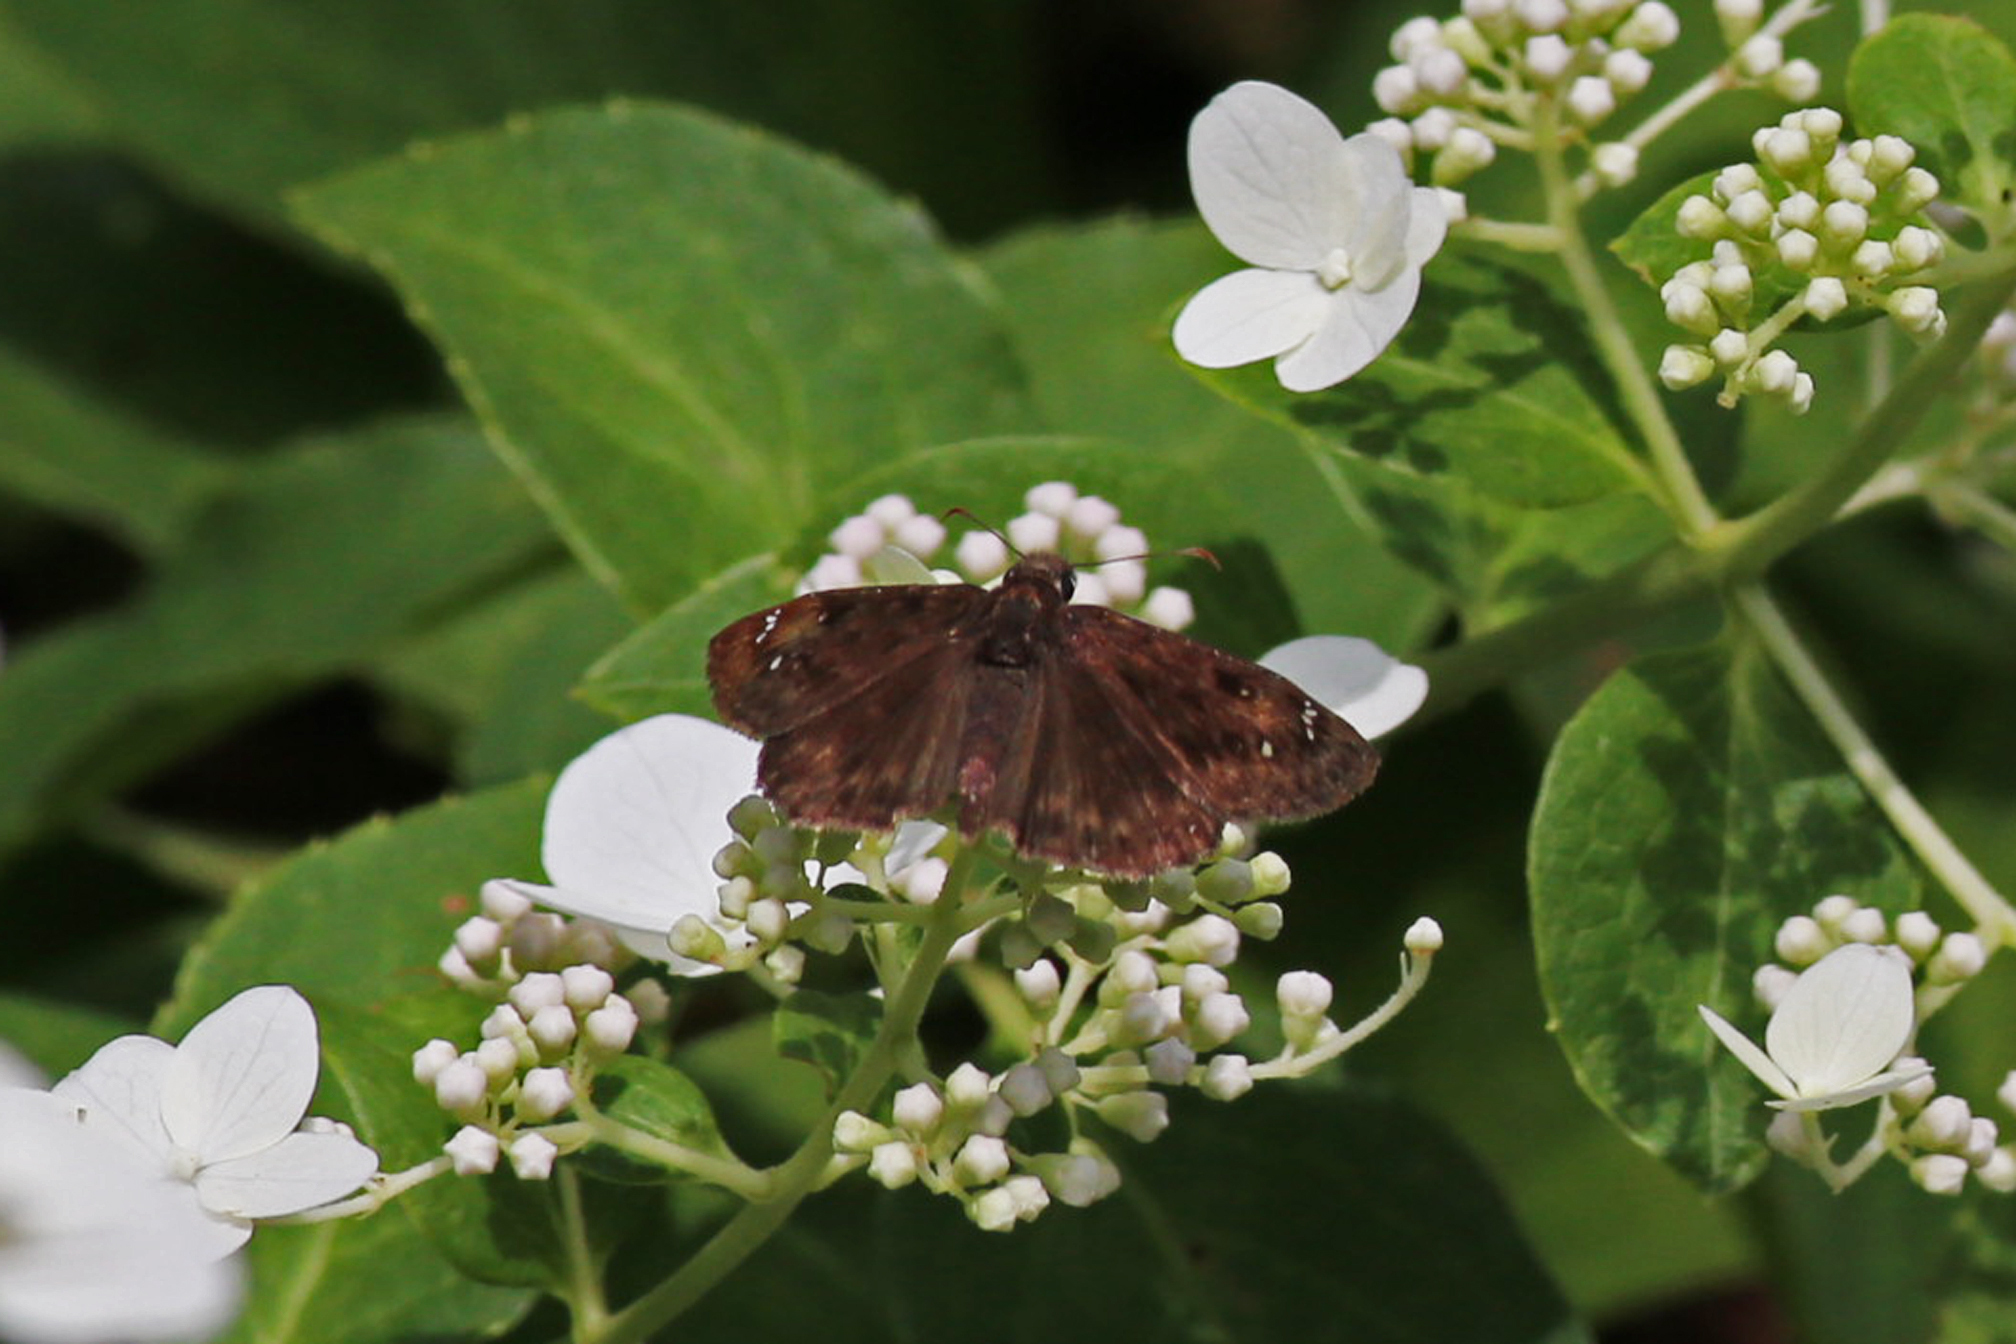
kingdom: Animalia
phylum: Arthropoda
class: Insecta
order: Lepidoptera
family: Hesperiidae
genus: Erynnis
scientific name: Erynnis horatius
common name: Horace's duskywing
